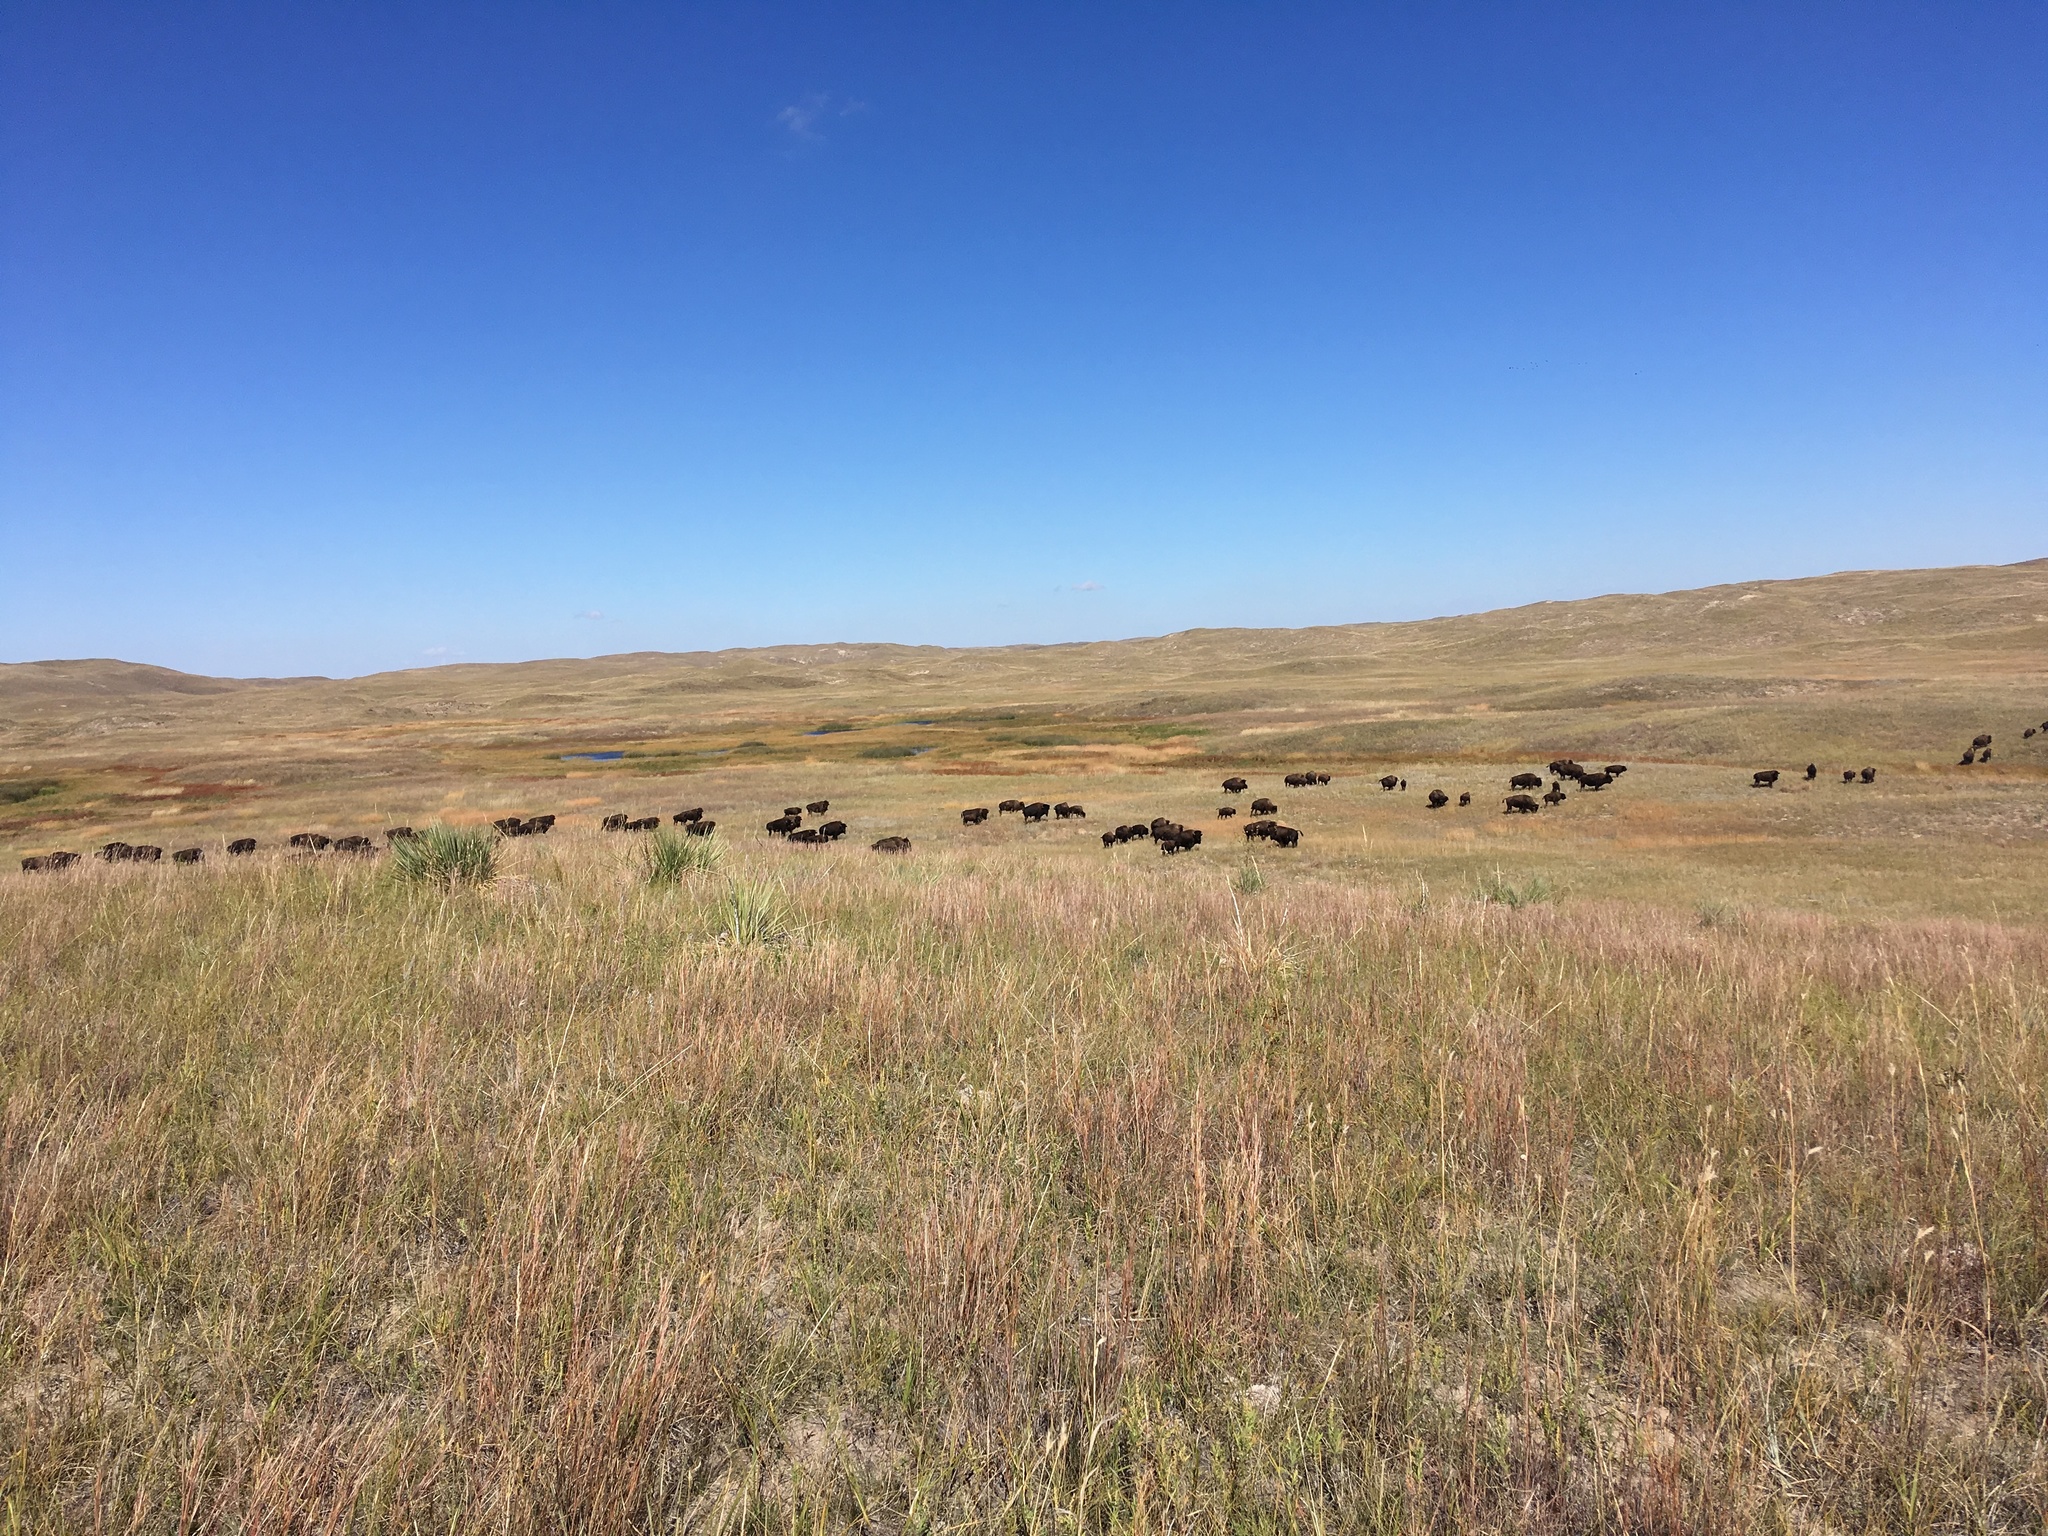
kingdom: Animalia
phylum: Chordata
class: Mammalia
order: Artiodactyla
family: Bovidae
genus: Bison
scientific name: Bison bison
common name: American bison
